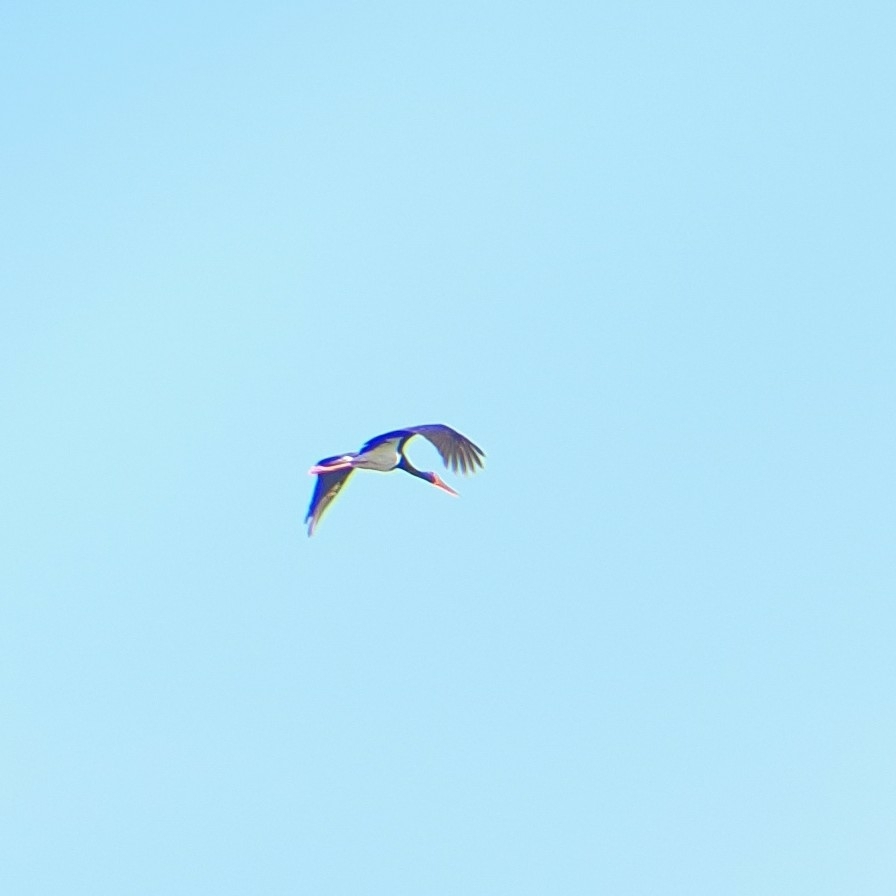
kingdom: Animalia
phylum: Chordata
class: Aves
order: Ciconiiformes
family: Ciconiidae
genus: Ciconia
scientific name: Ciconia nigra
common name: Black stork
